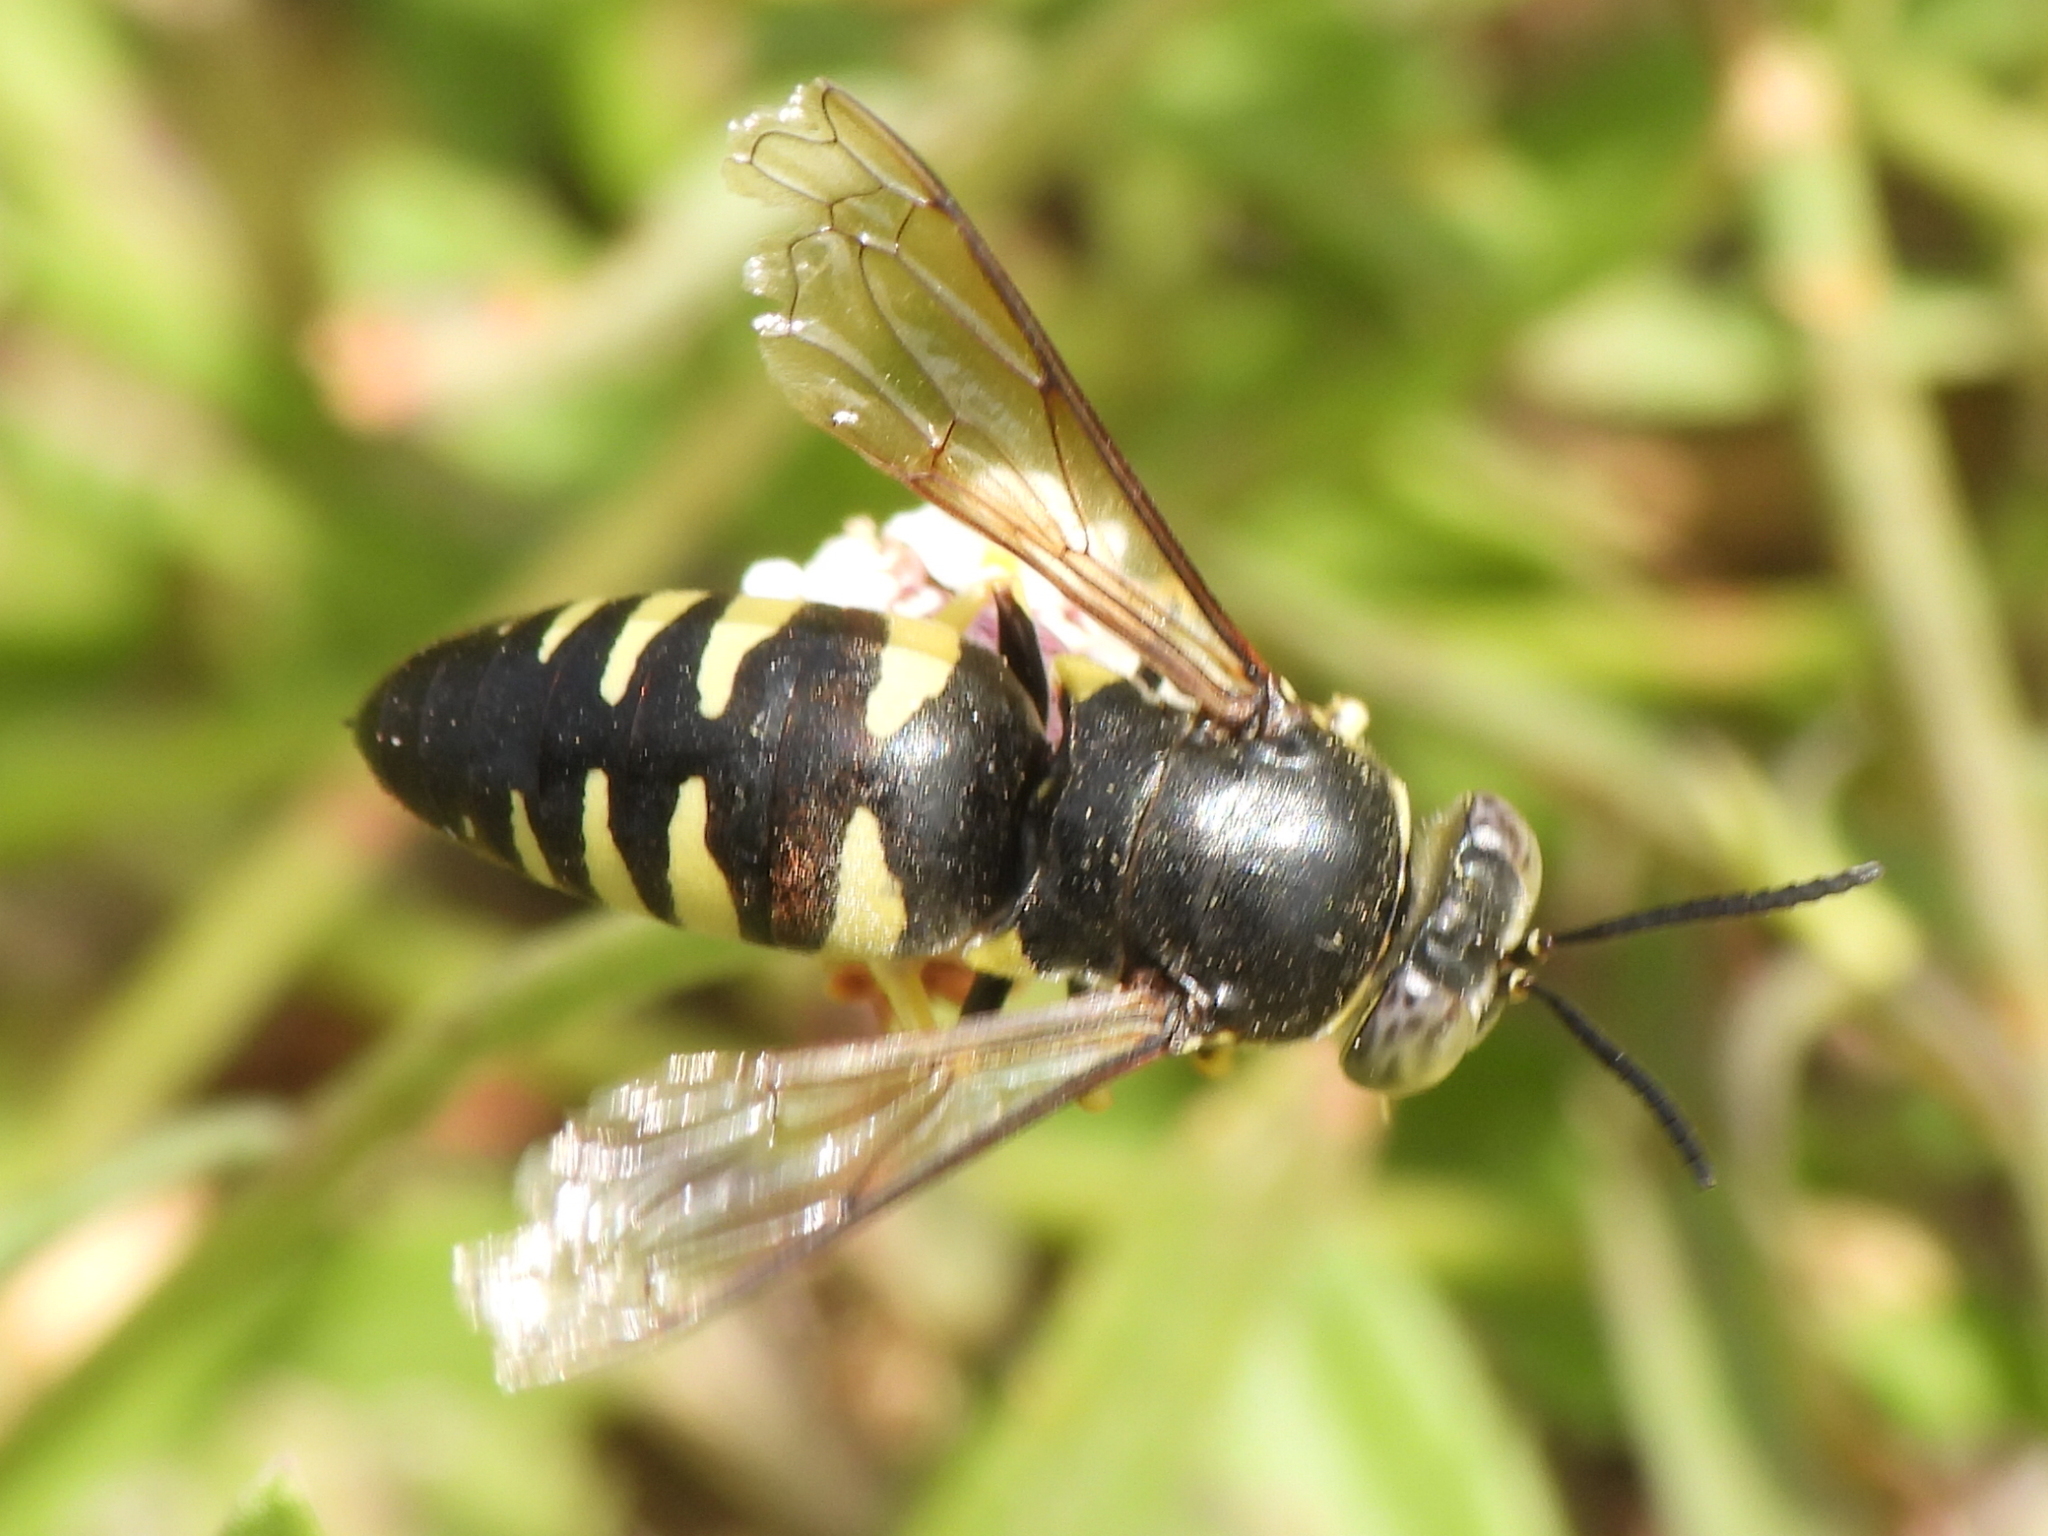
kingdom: Animalia
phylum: Arthropoda
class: Insecta
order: Hymenoptera
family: Crabronidae
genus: Bicyrtes
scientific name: Bicyrtes quadrifasciatus
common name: Four-banded stink bug hunter wasp
